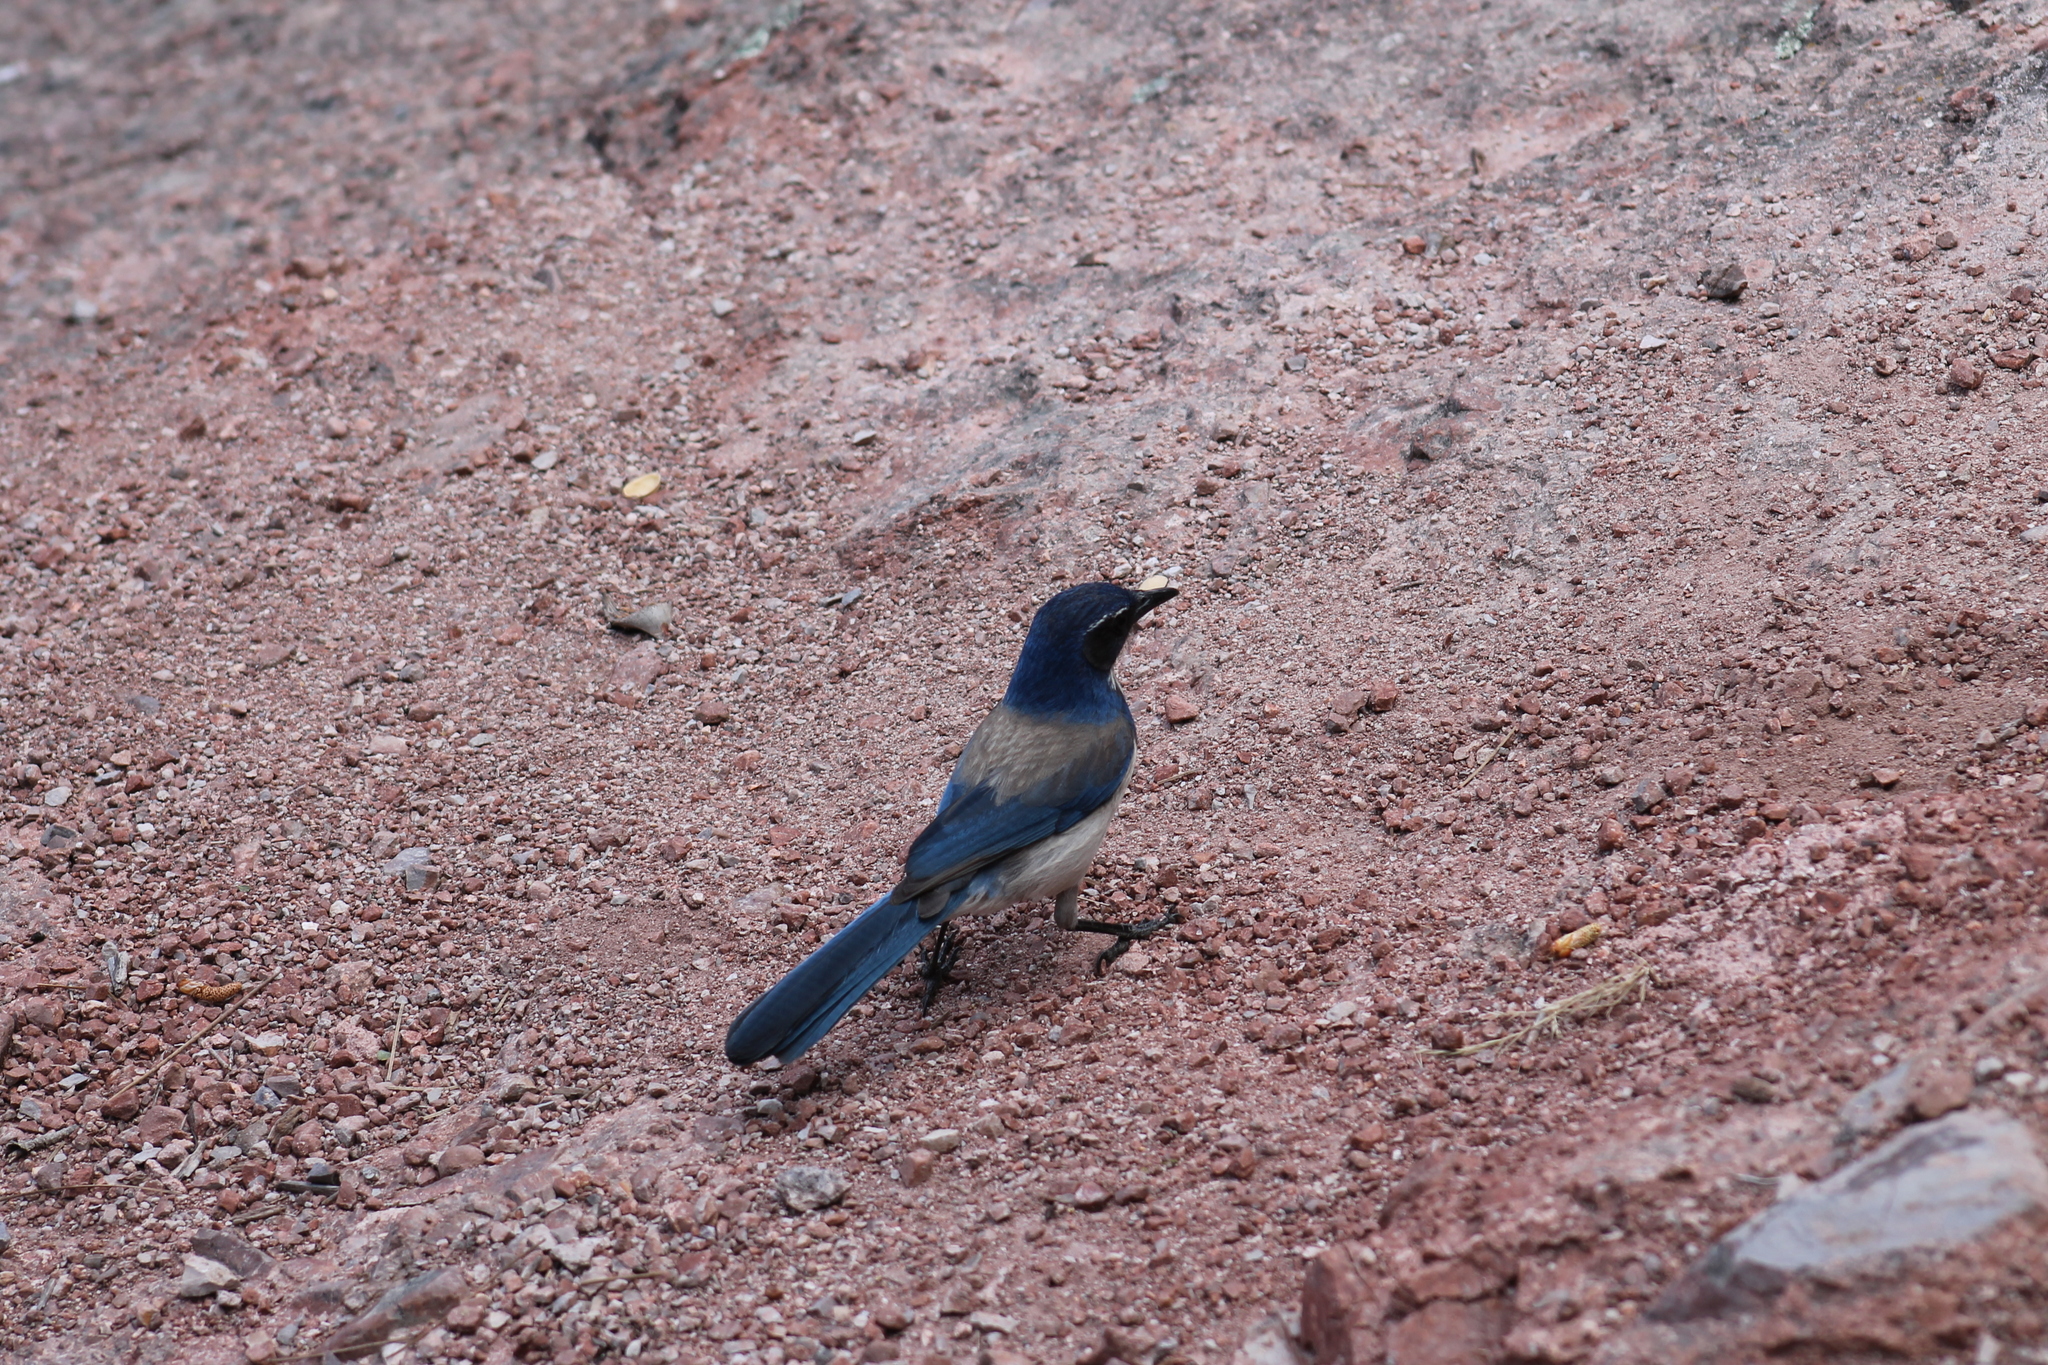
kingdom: Animalia
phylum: Chordata
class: Aves
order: Passeriformes
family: Corvidae
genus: Aphelocoma
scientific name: Aphelocoma californica
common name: California scrub-jay
